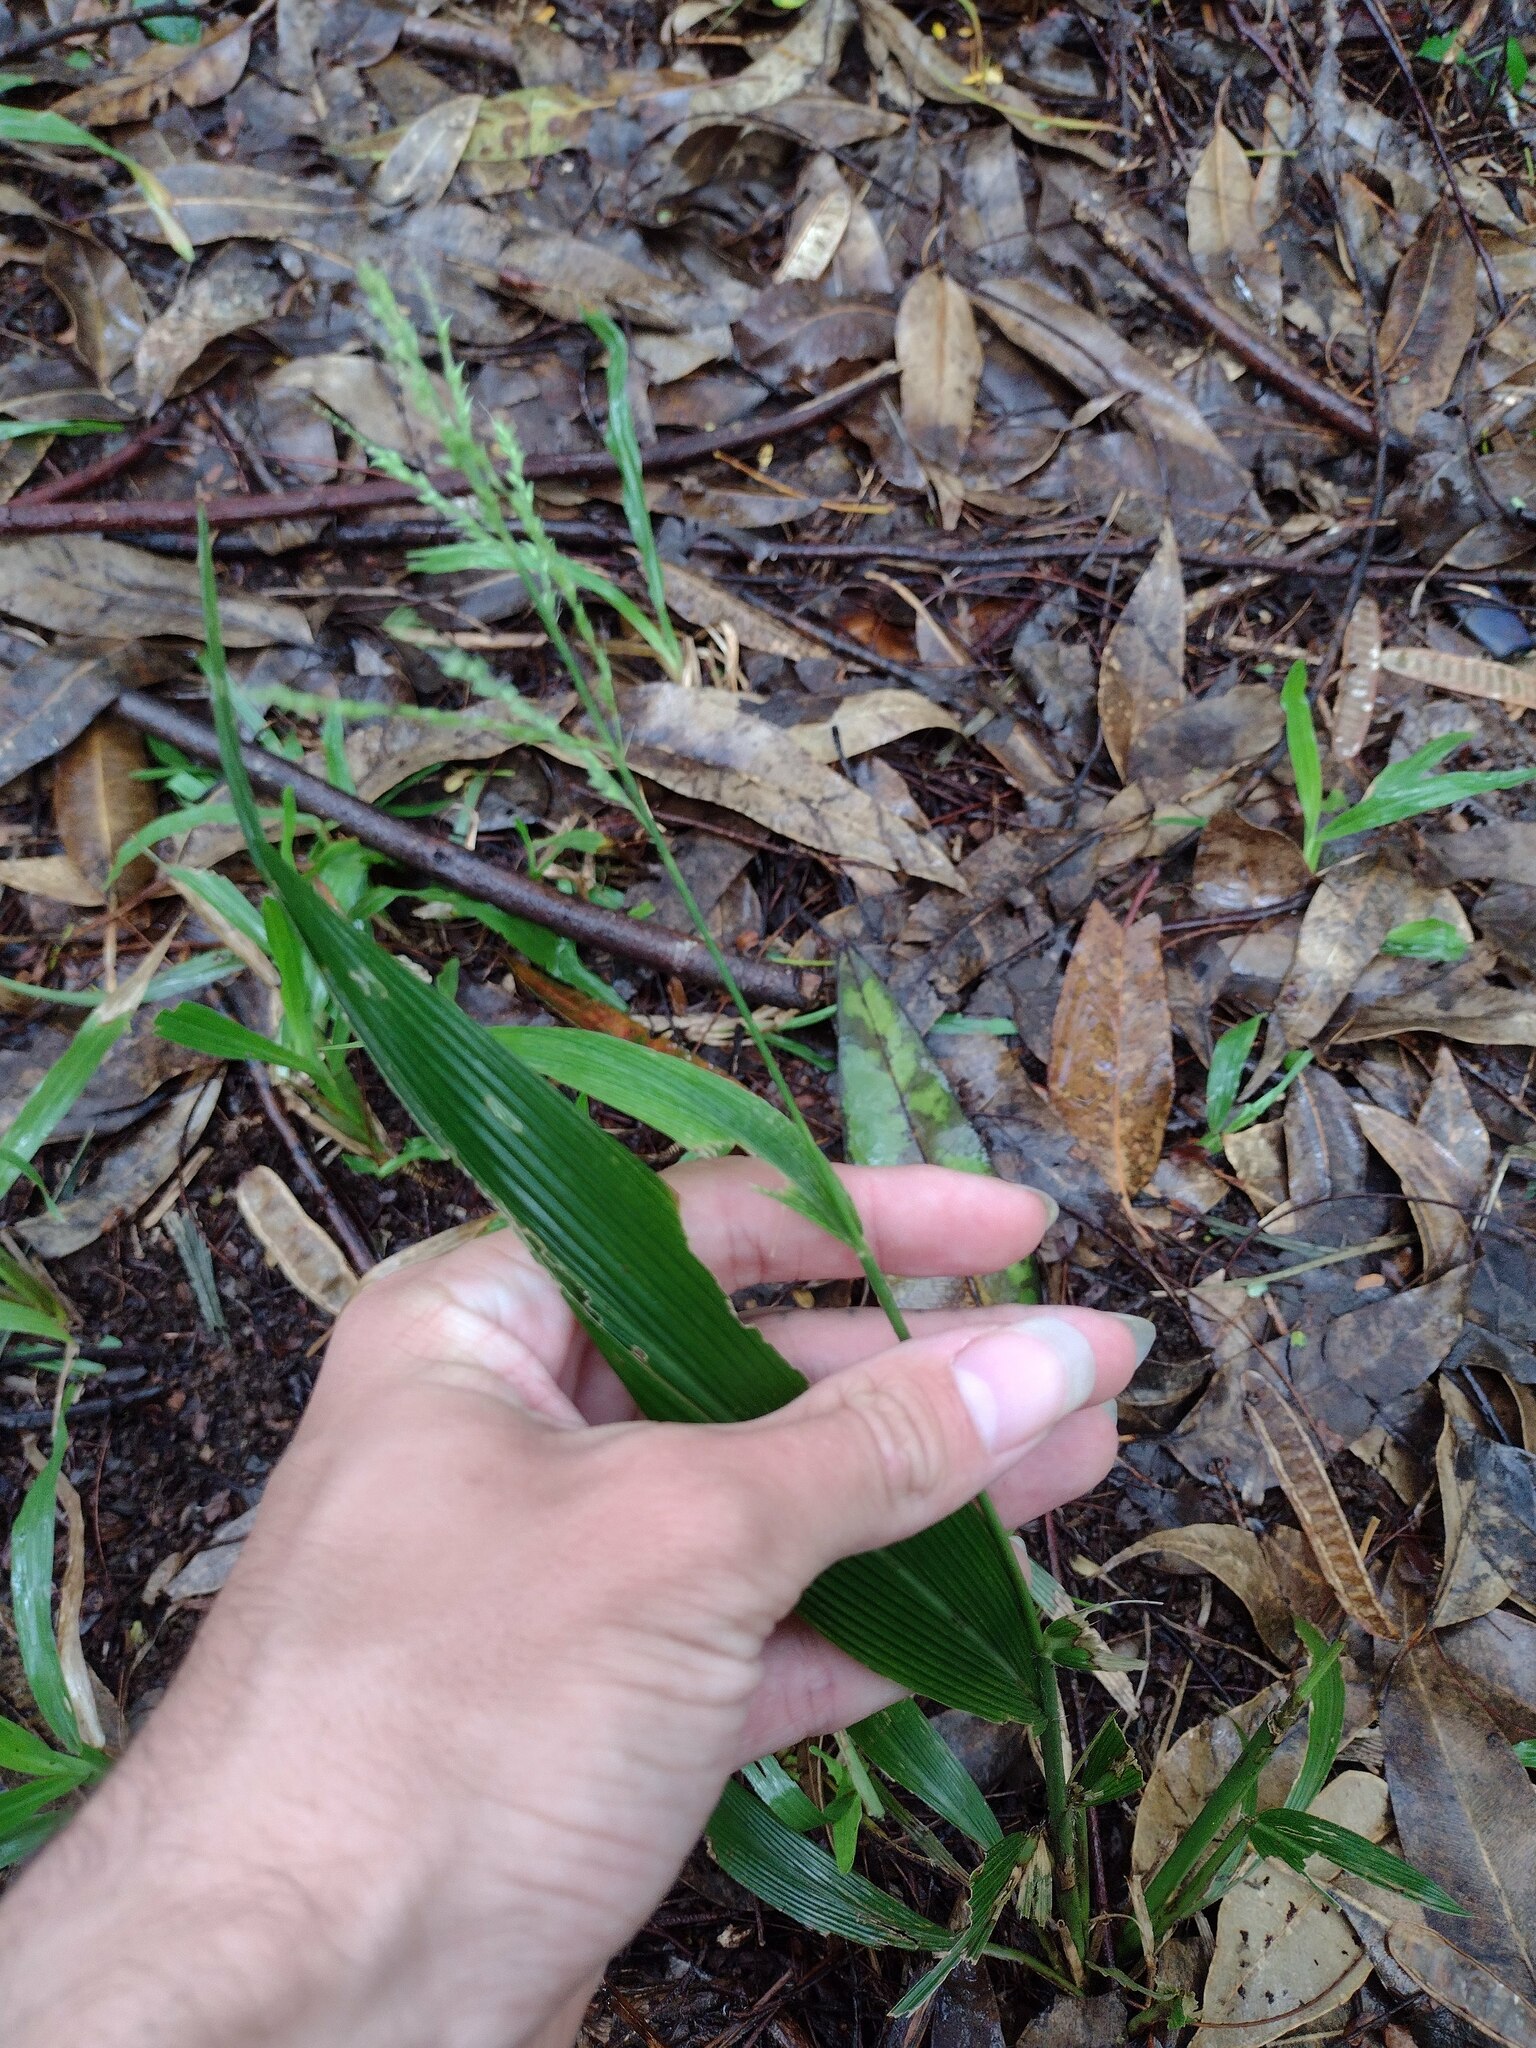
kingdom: Plantae
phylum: Tracheophyta
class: Liliopsida
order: Poales
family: Poaceae
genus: Setaria
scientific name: Setaria palmifolia
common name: Broadleaved bristlegrass
